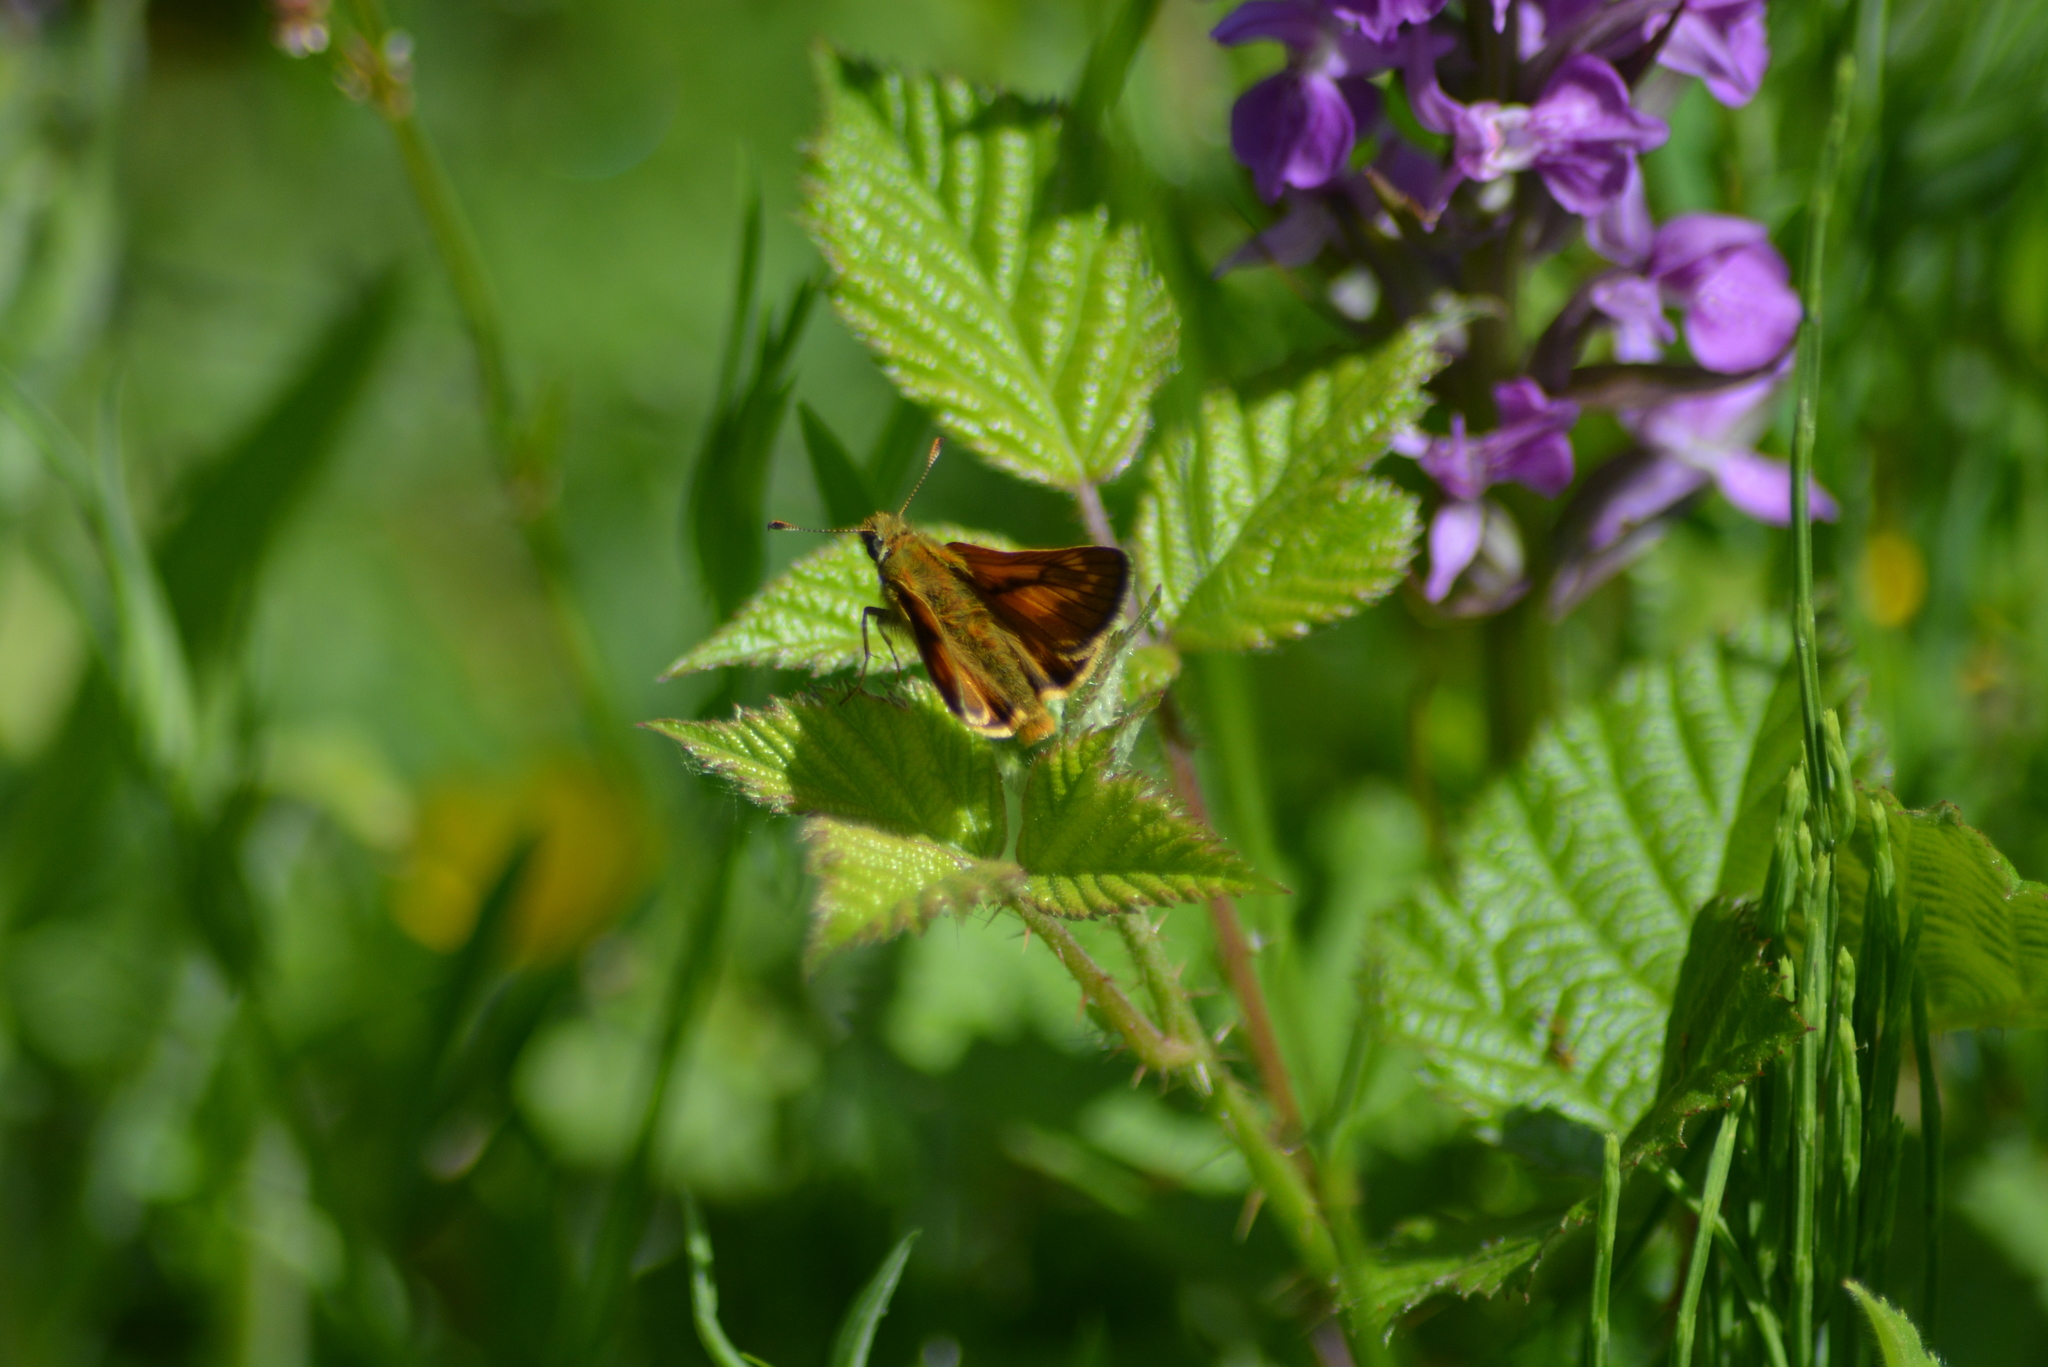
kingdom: Animalia
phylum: Arthropoda
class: Insecta
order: Lepidoptera
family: Hesperiidae
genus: Ochlodes
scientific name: Ochlodes venata
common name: Large skipper
